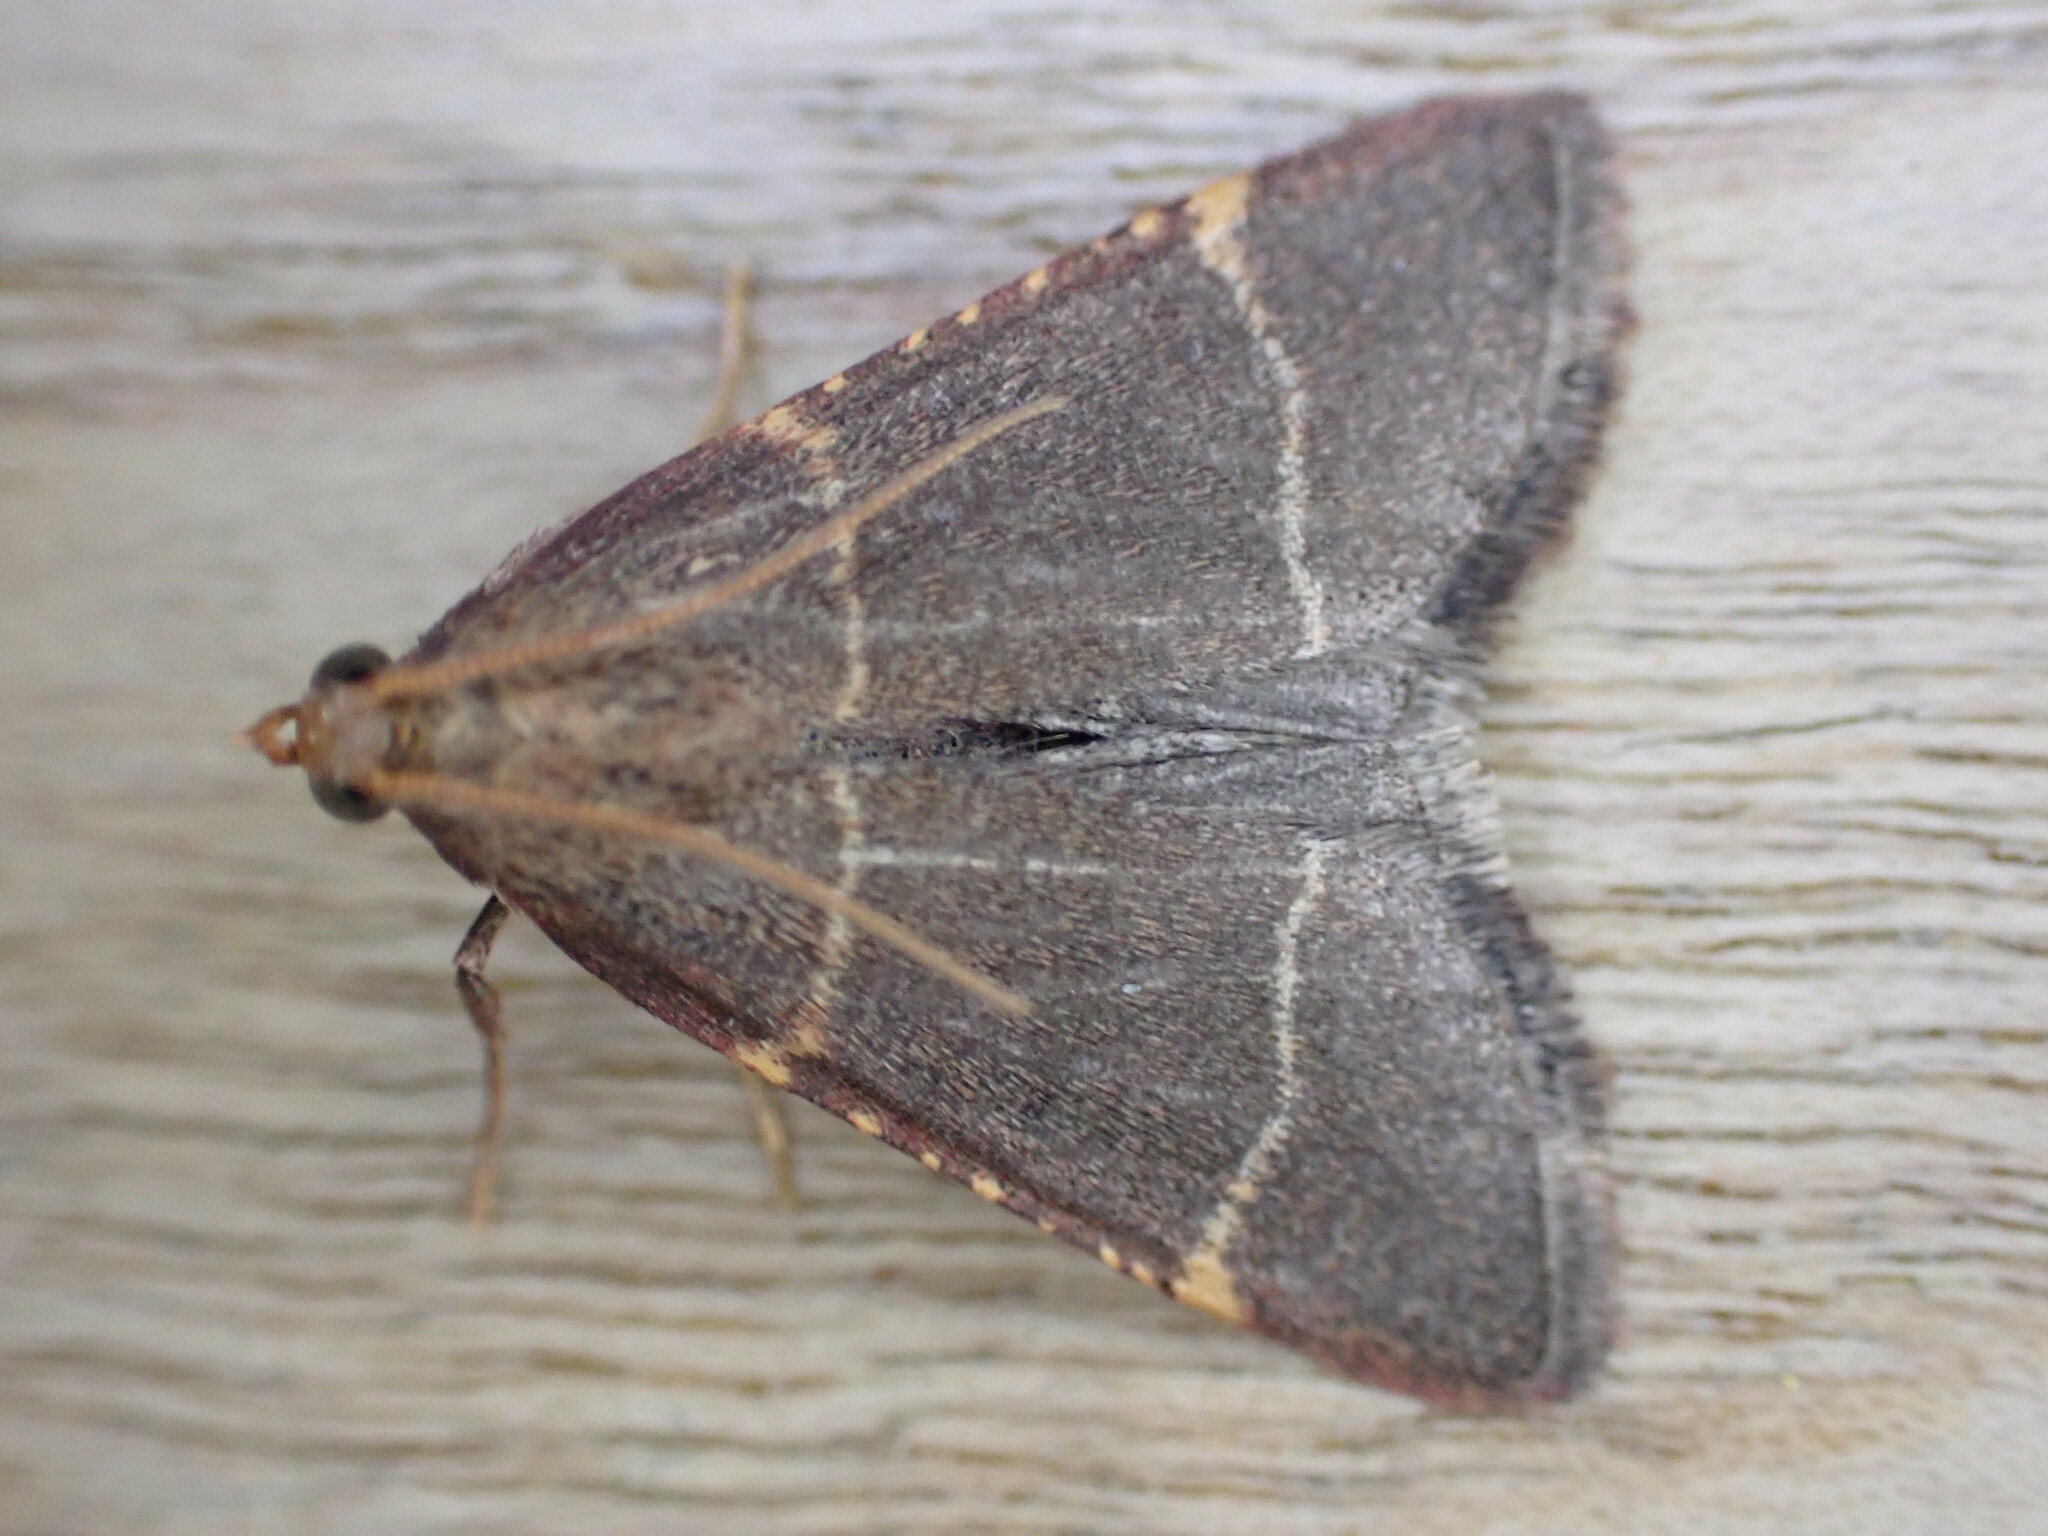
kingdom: Animalia
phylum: Arthropoda
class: Insecta
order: Lepidoptera
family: Pyralidae
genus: Hypsopygia
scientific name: Hypsopygia glaucinalis
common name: Double-striped tabby
